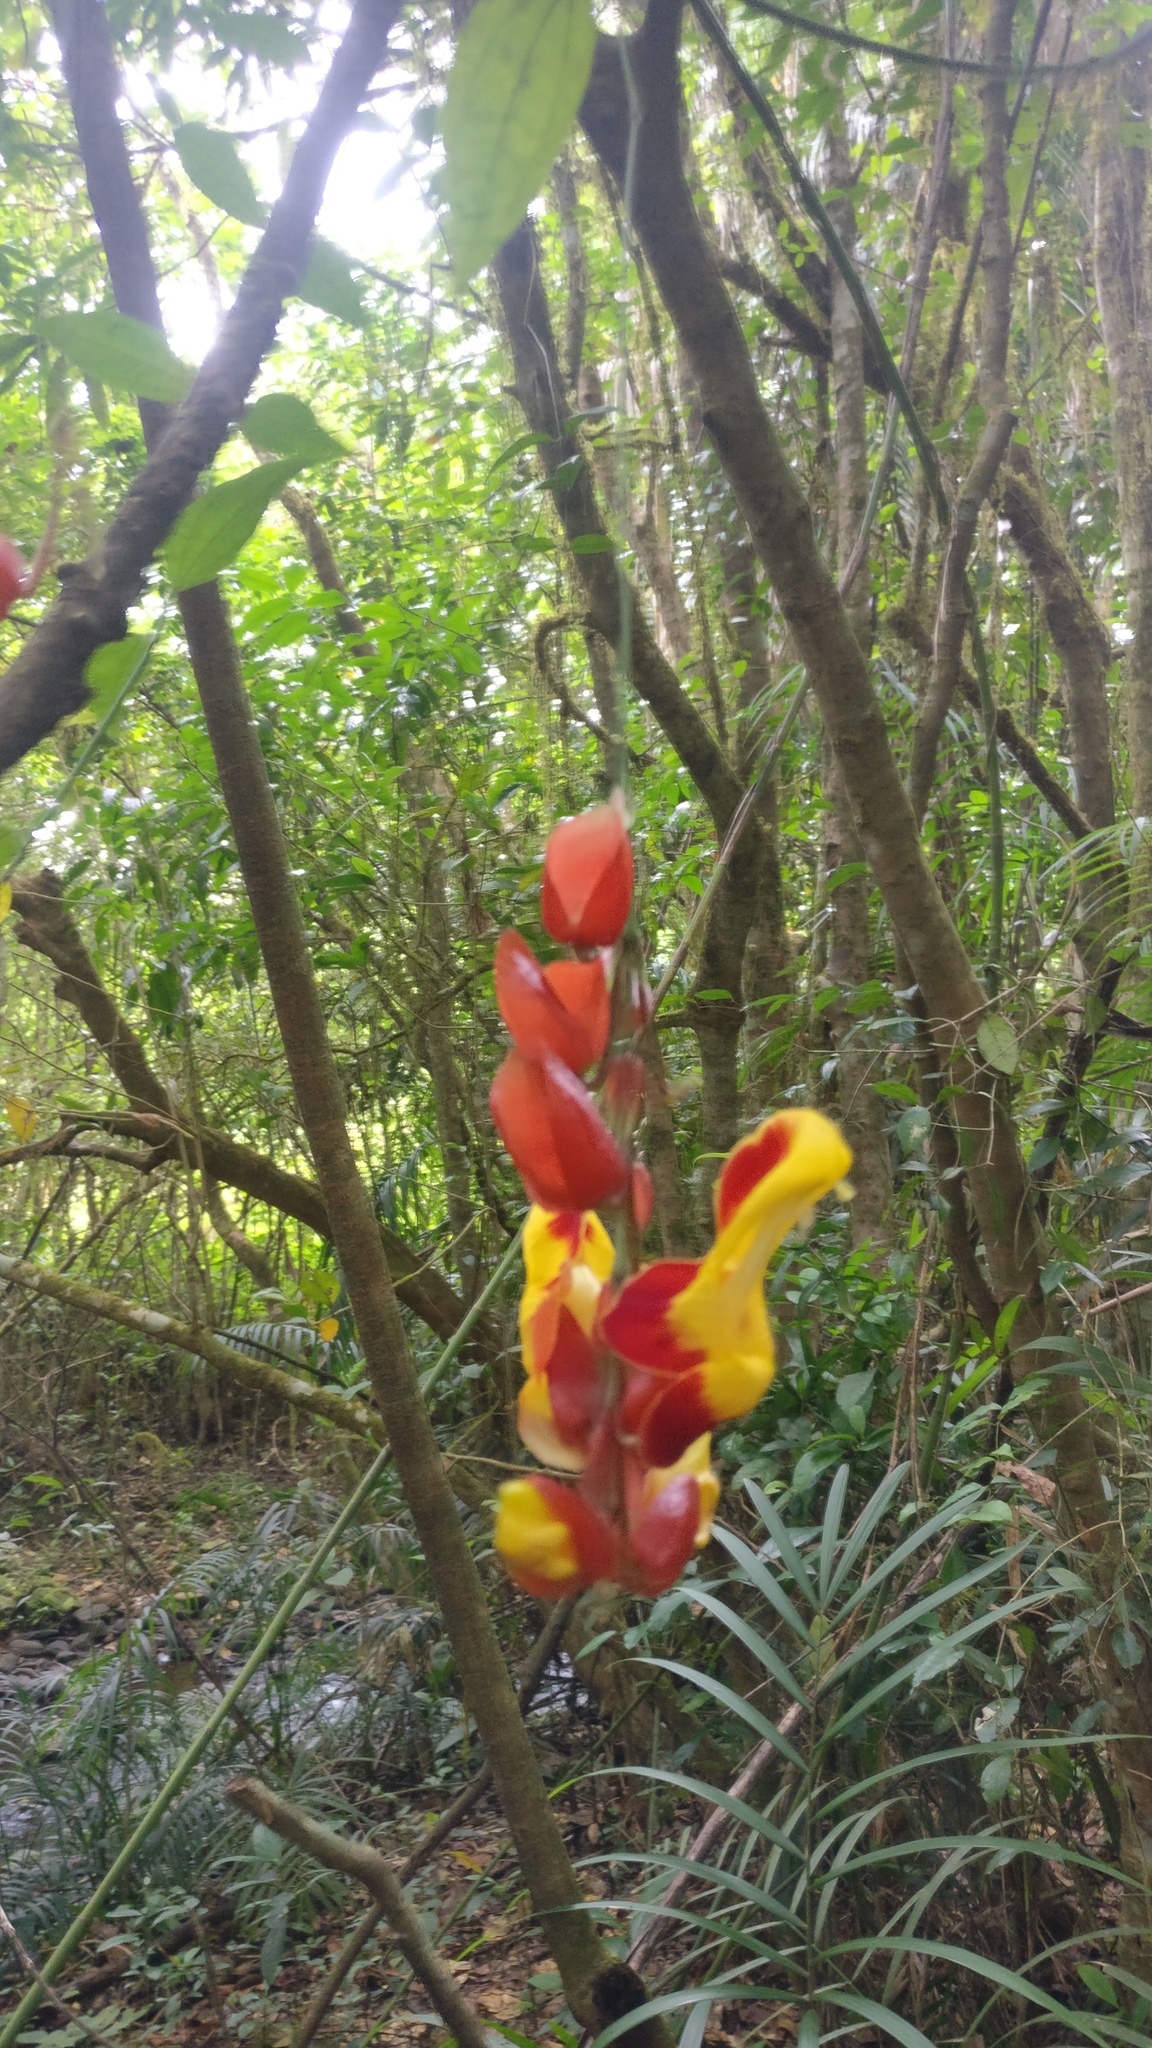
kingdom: Plantae
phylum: Tracheophyta
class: Magnoliopsida
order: Lamiales
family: Acanthaceae
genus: Thunbergia
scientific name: Thunbergia mysorensis
